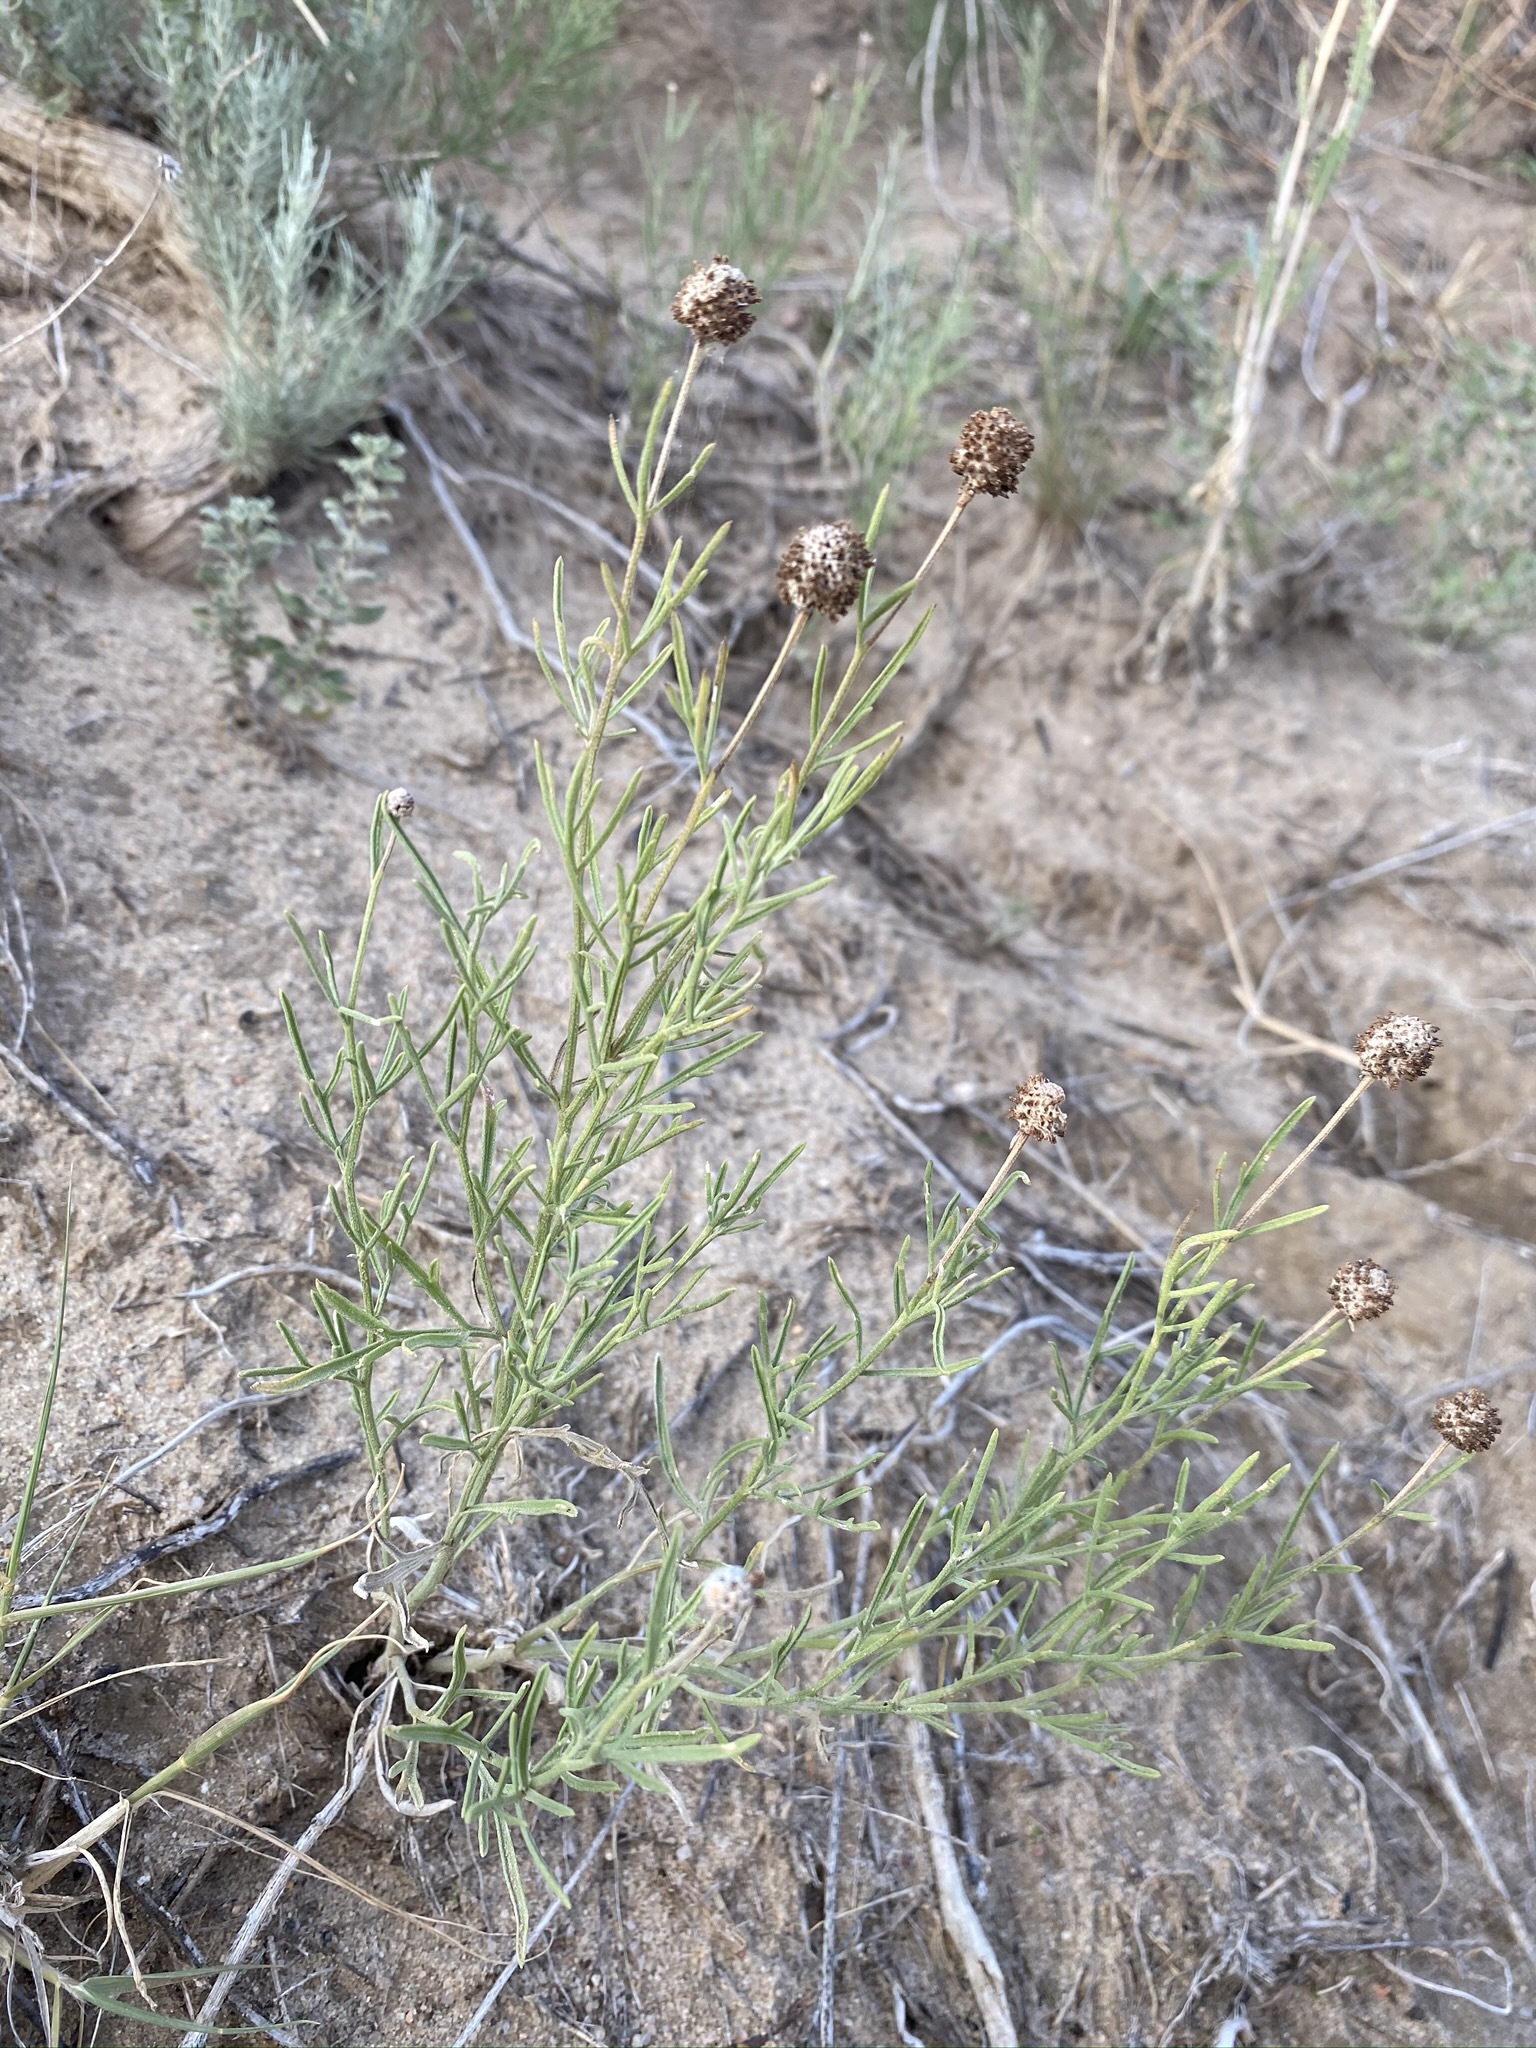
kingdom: Plantae
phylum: Tracheophyta
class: Magnoliopsida
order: Asterales
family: Asteraceae
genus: Ratibida
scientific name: Ratibida tagetes
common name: Green mexican-hat
